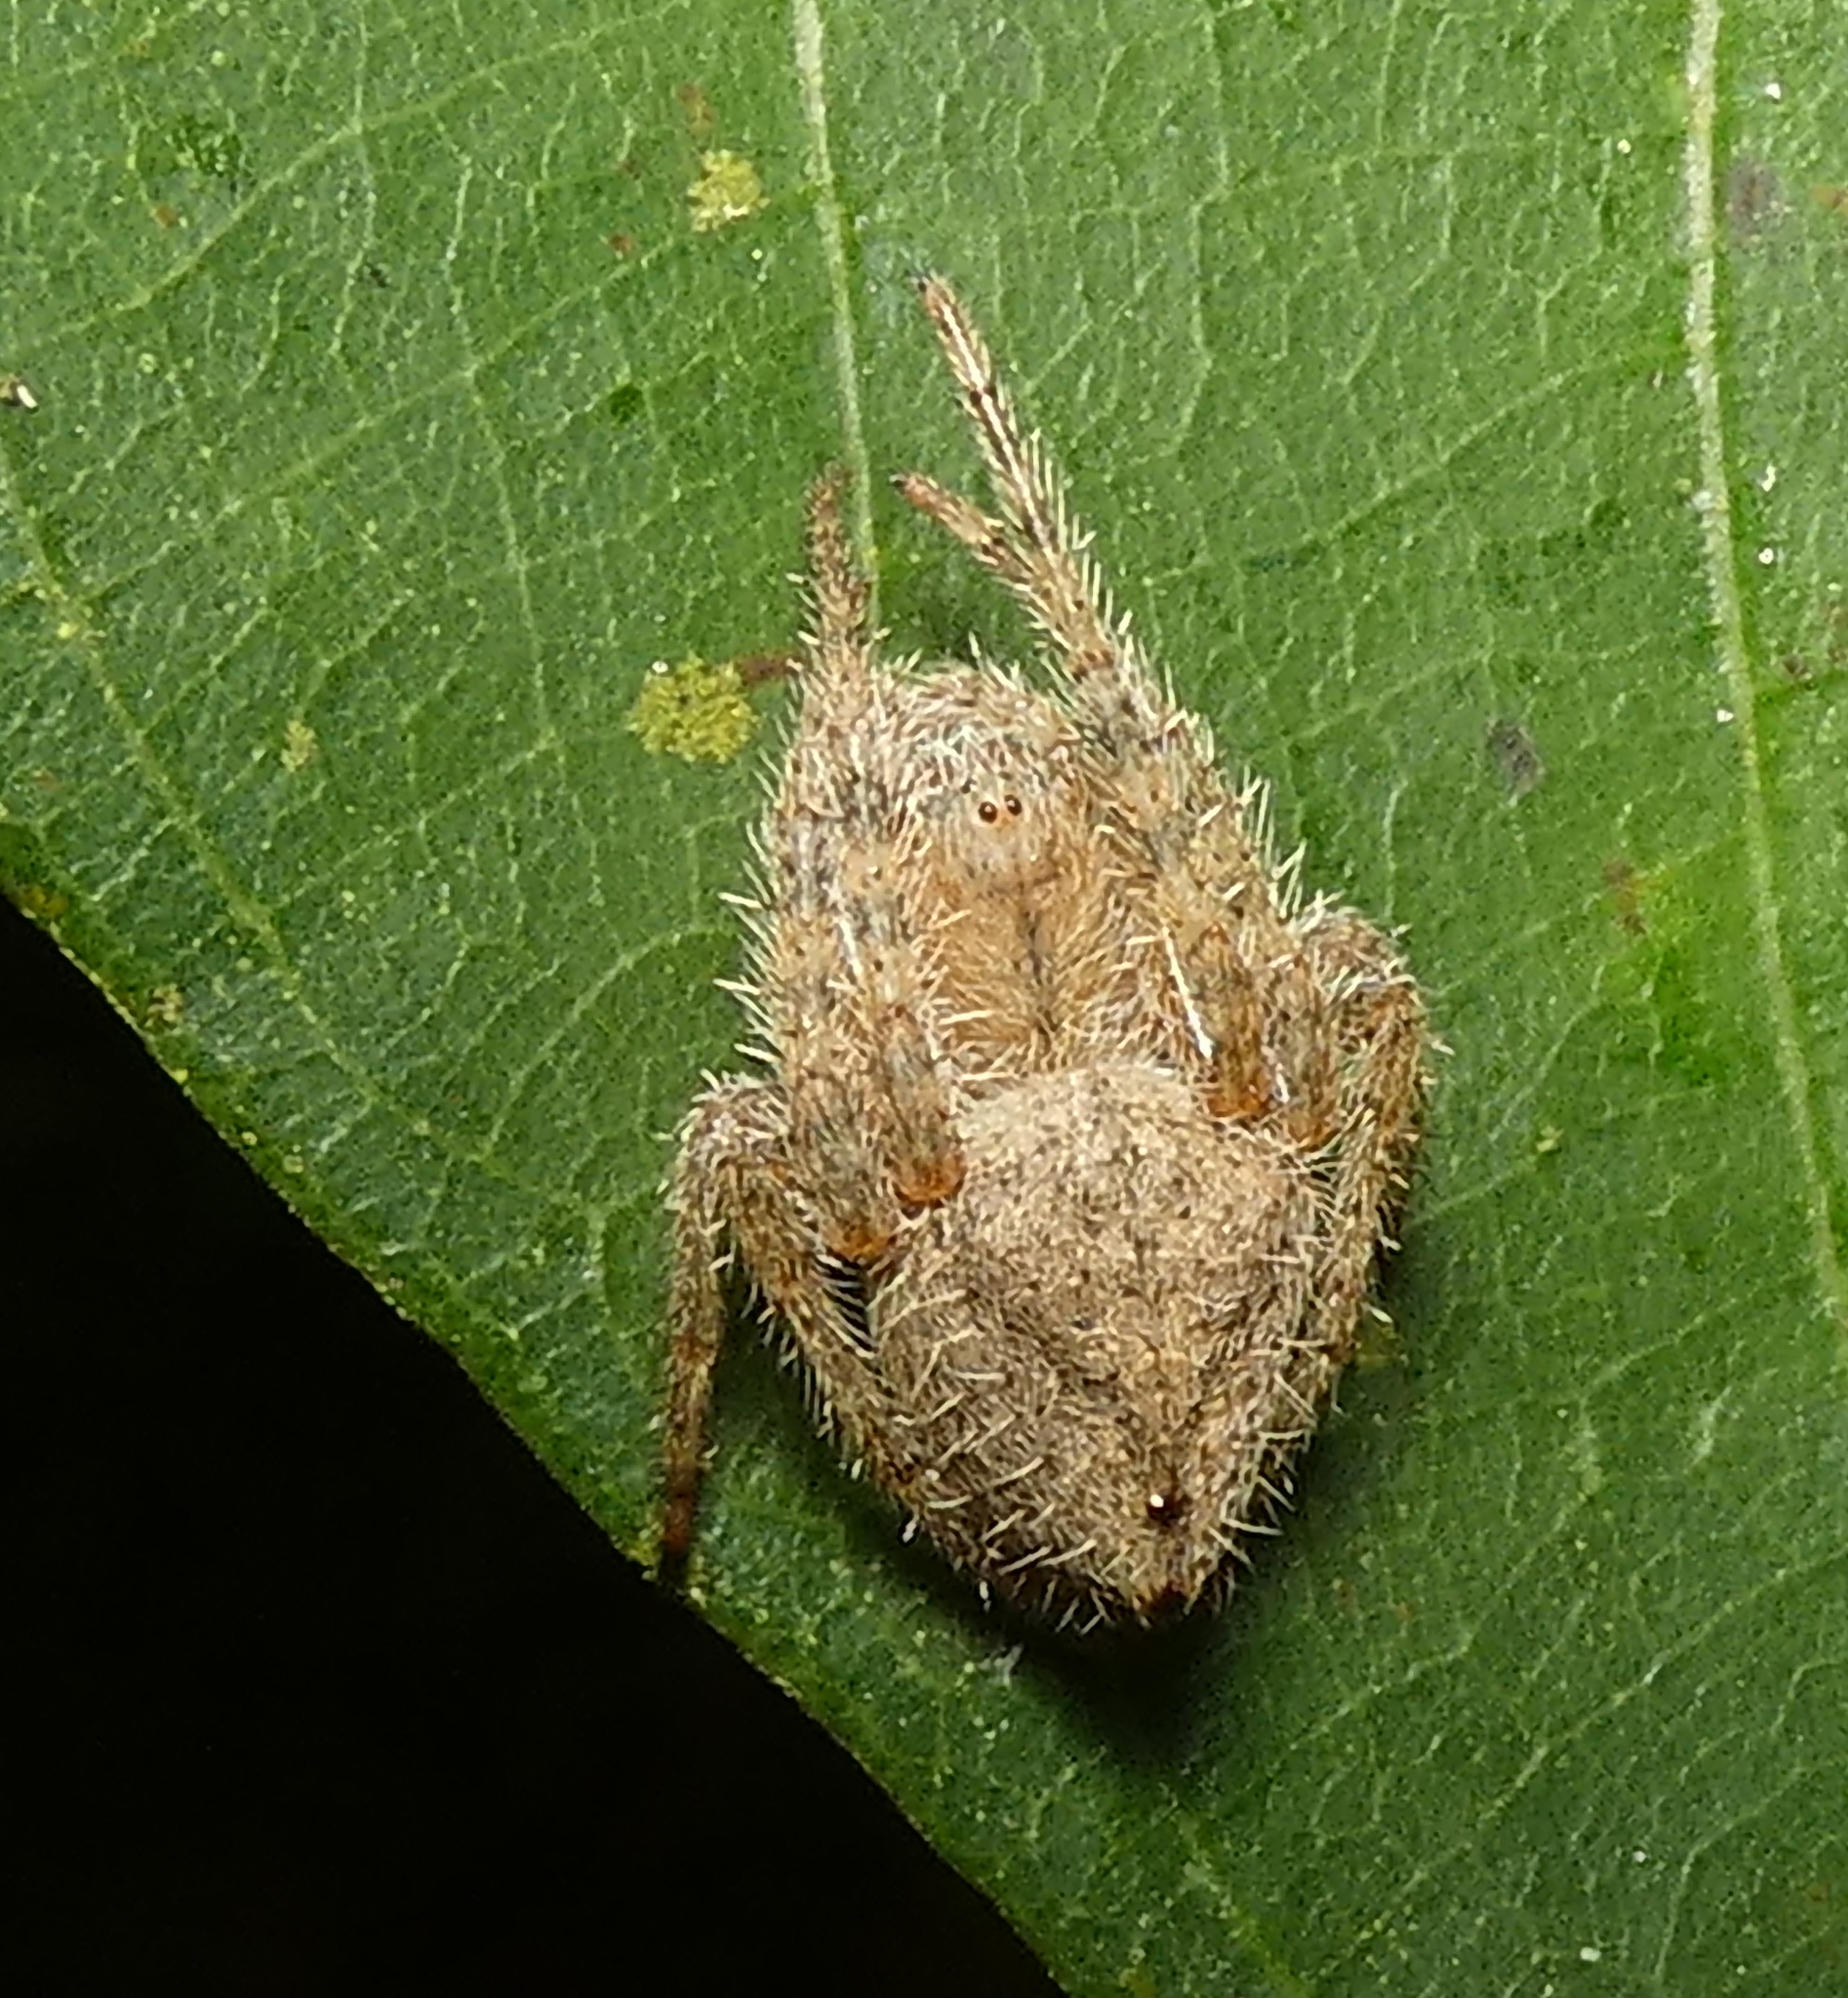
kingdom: Animalia
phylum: Arthropoda
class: Arachnida
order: Araneae
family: Araneidae
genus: Eriophora
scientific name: Eriophora edax
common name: Orb weavers
